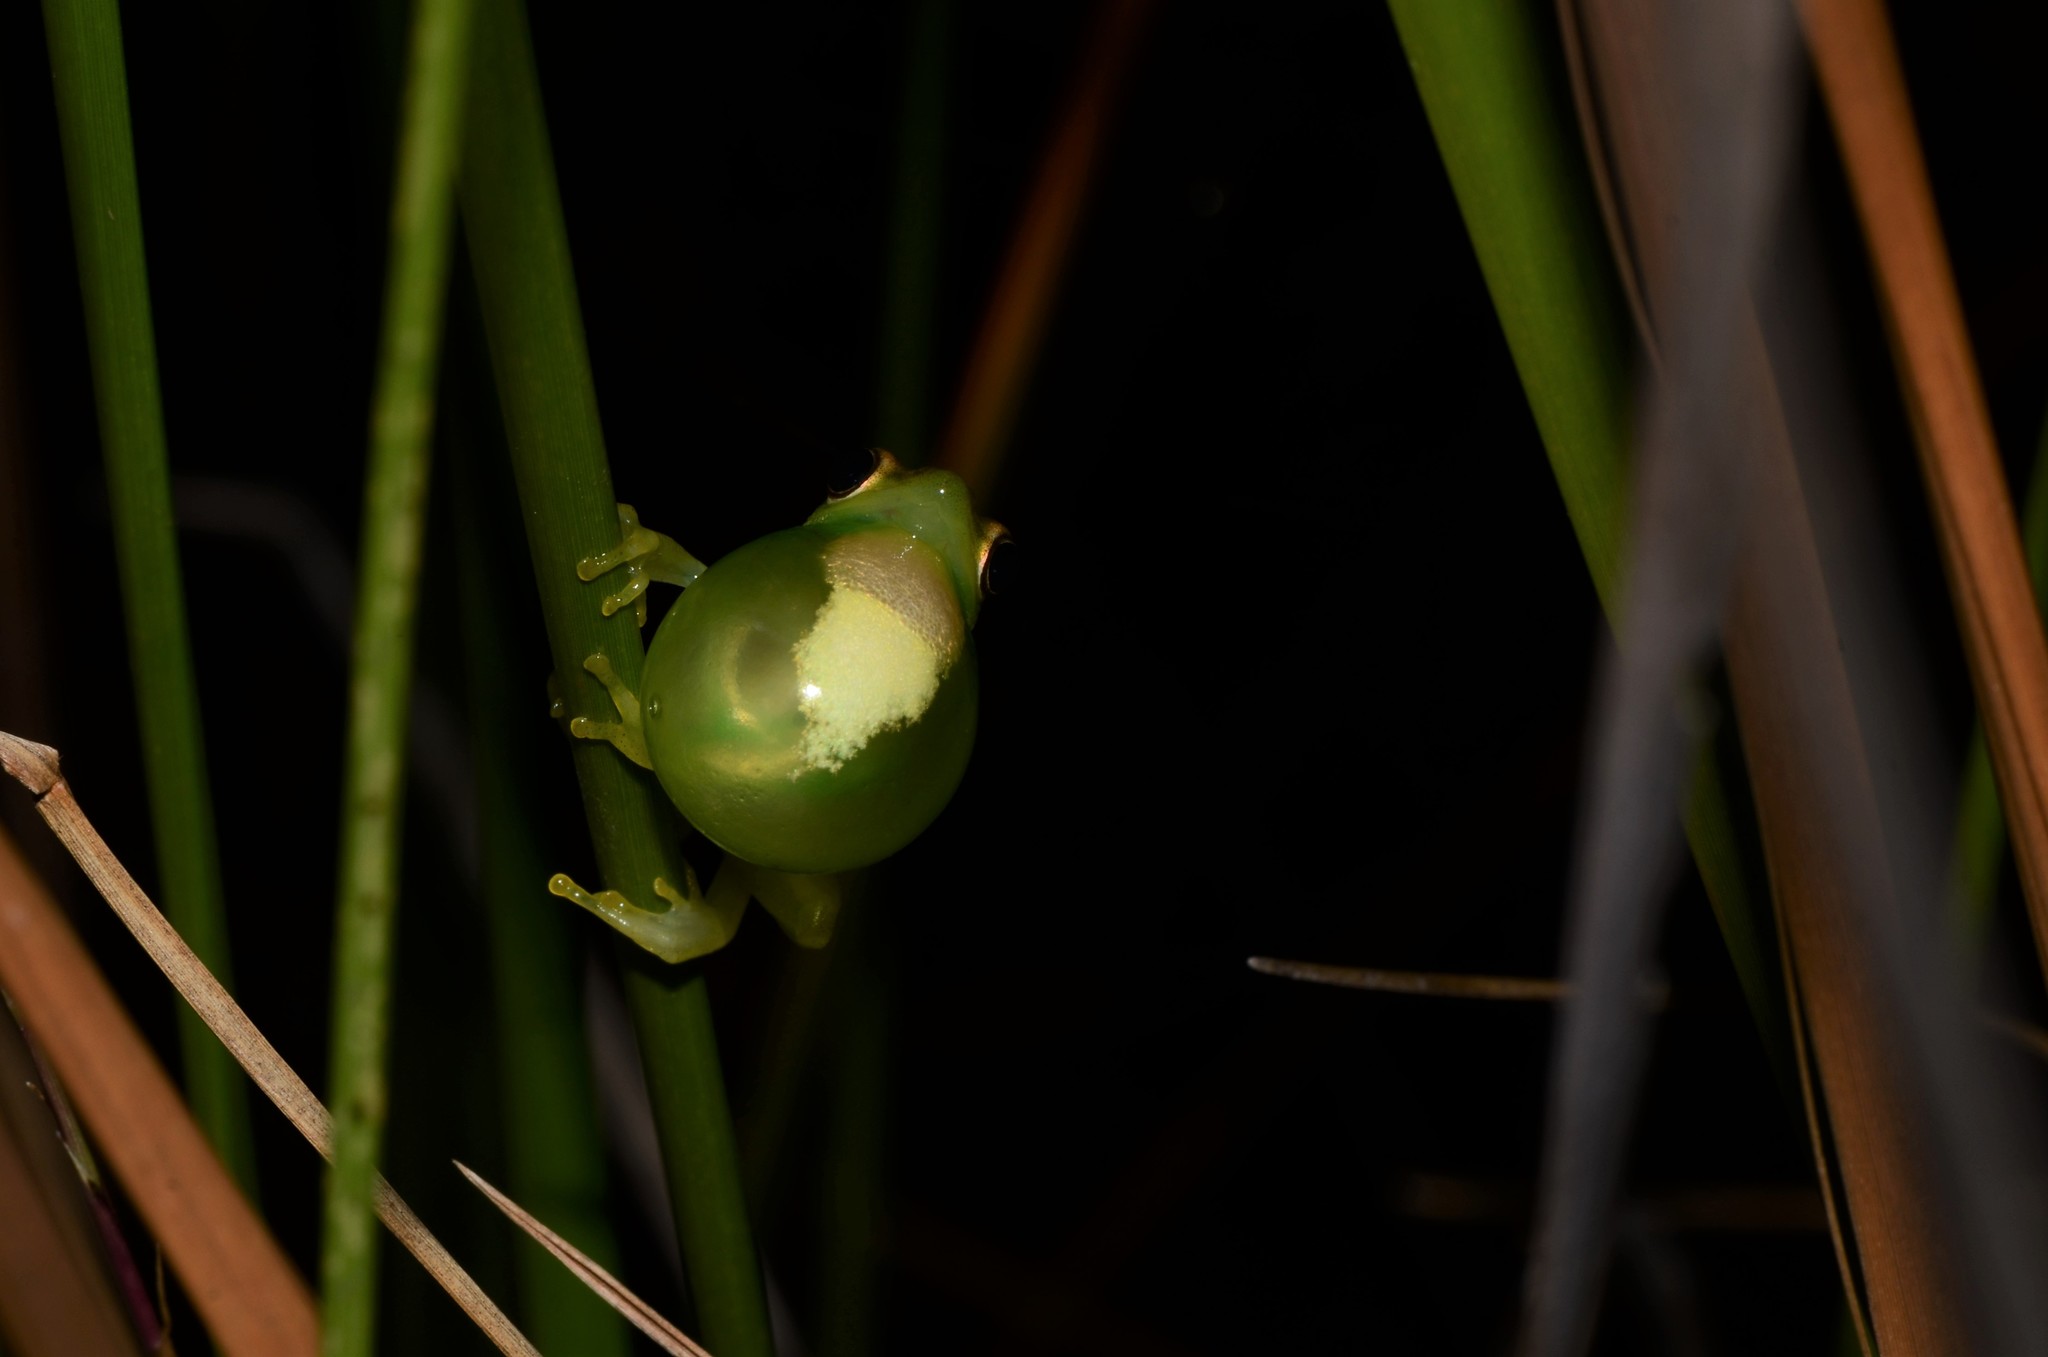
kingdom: Animalia
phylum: Chordata
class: Amphibia
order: Anura
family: Hyperoliidae
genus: Hyperolius
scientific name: Hyperolius microps
